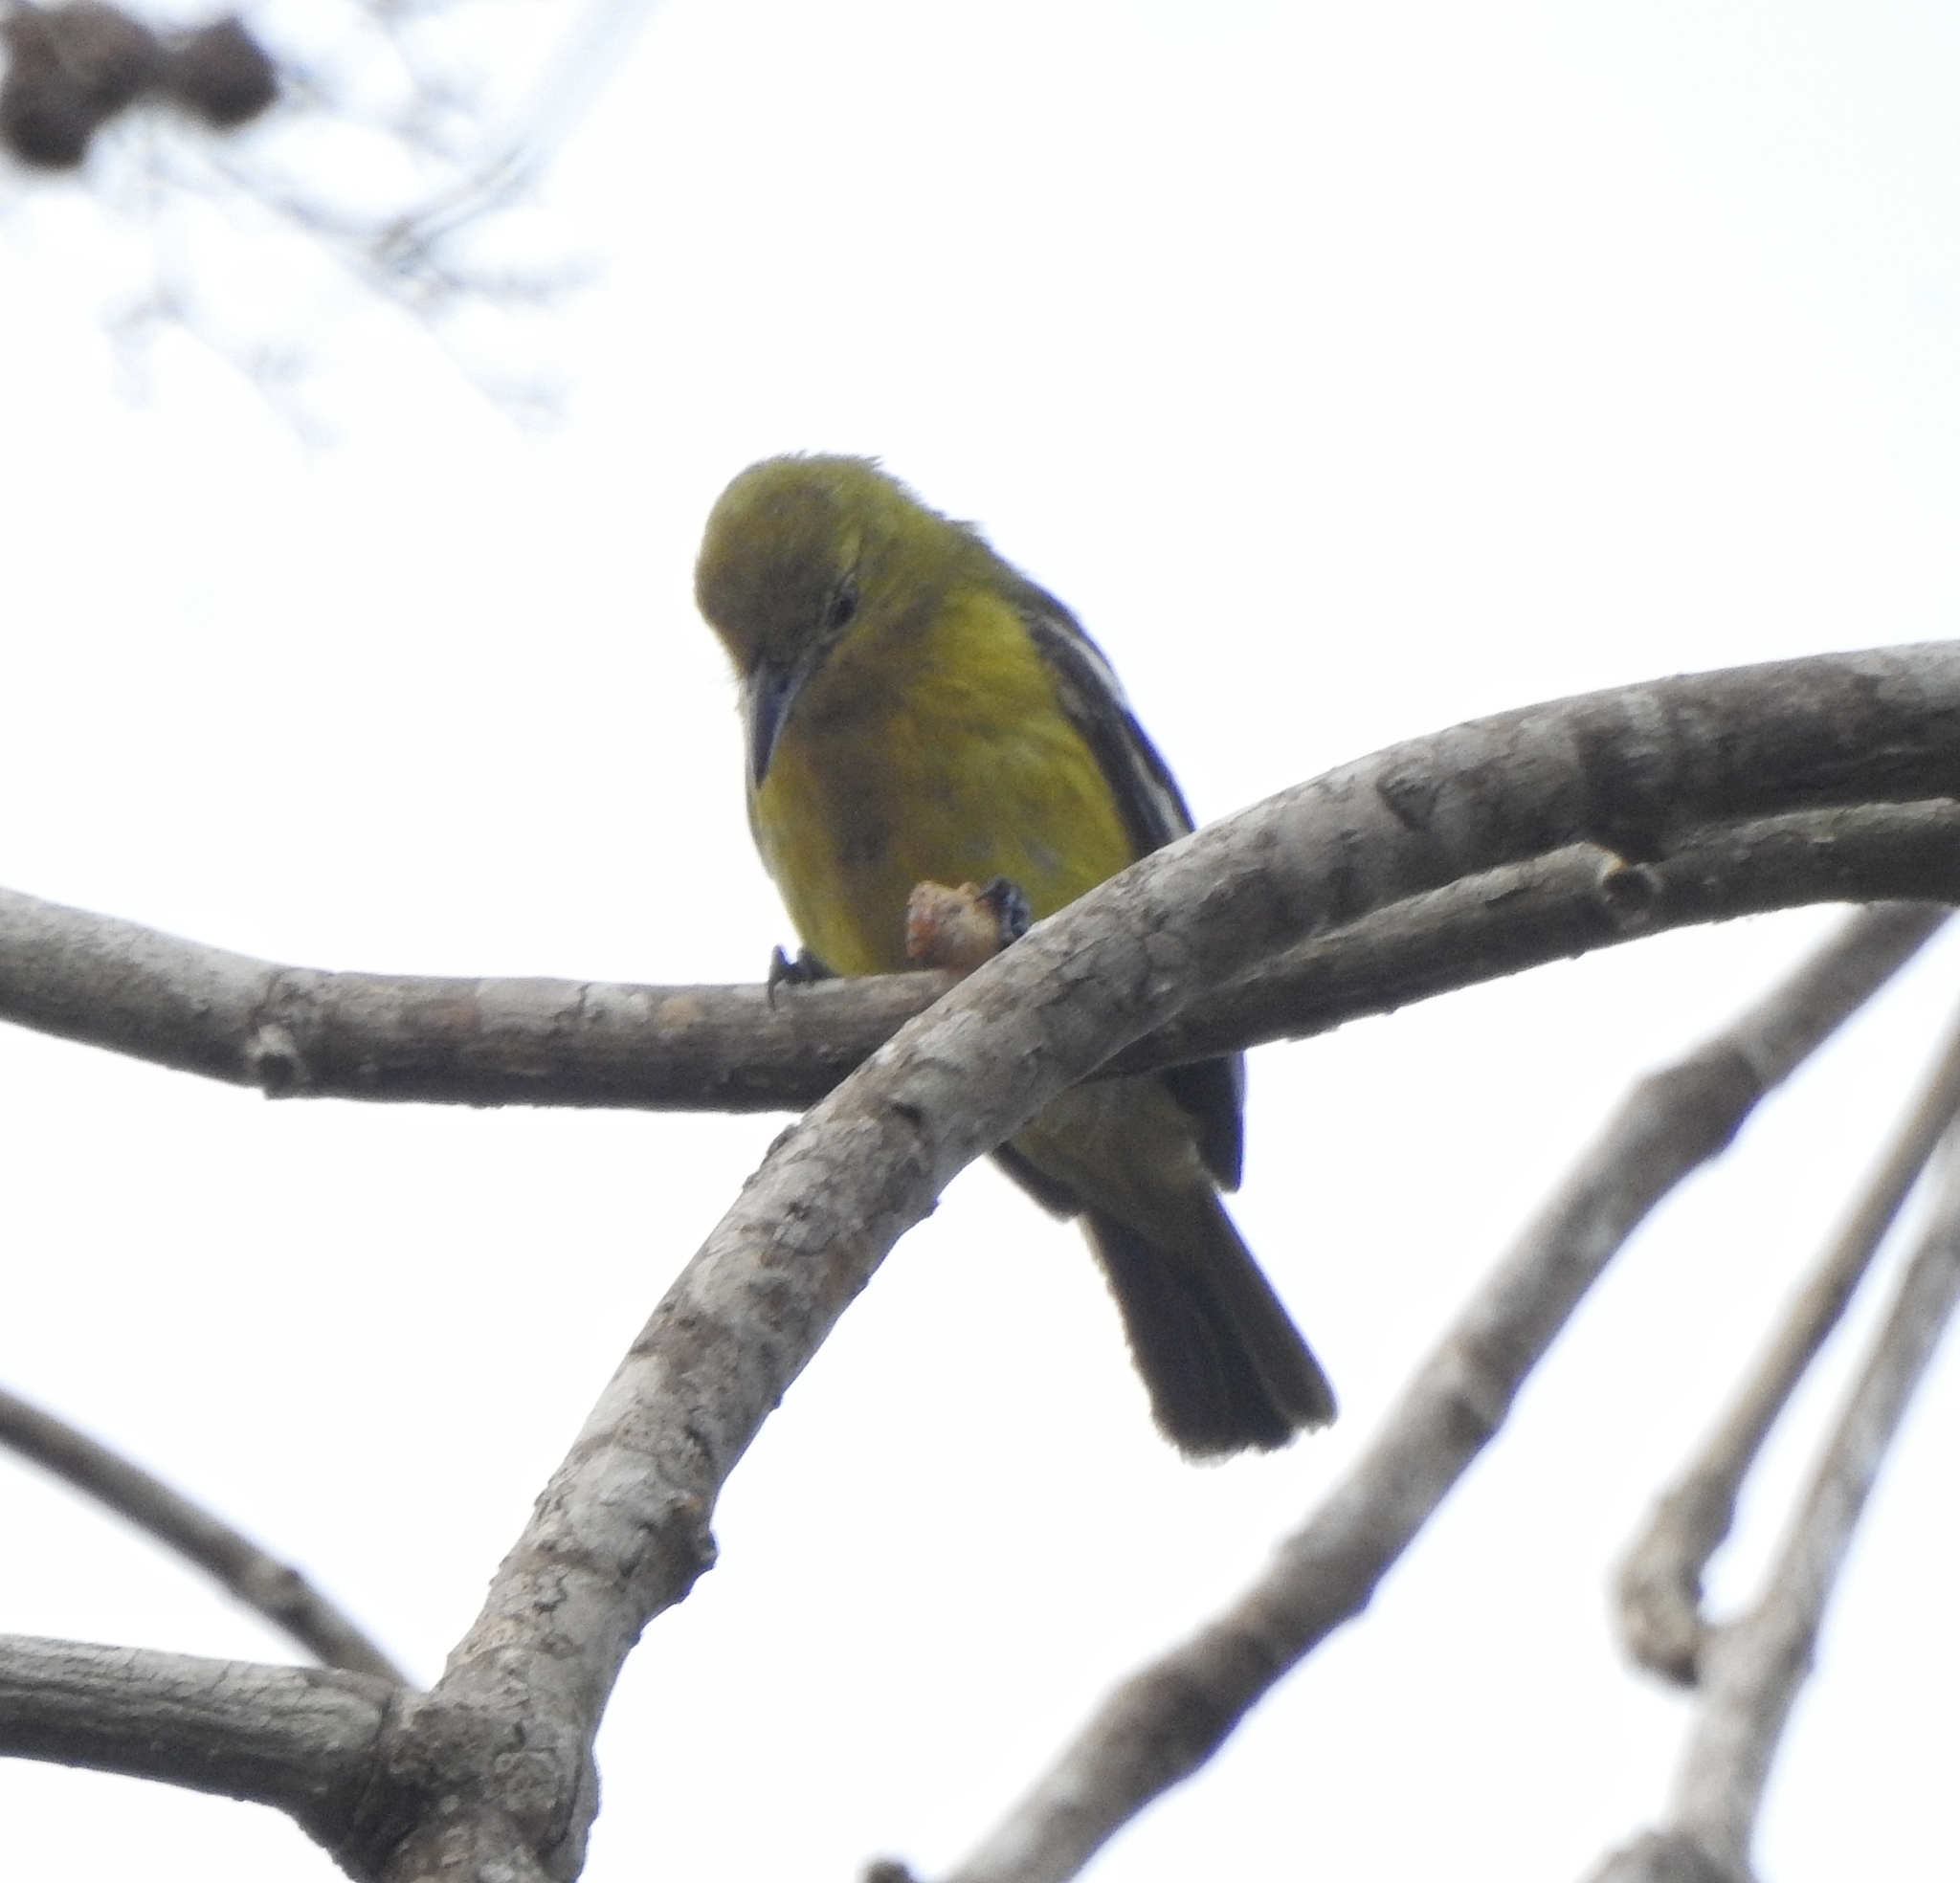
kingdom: Animalia
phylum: Chordata
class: Aves
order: Passeriformes
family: Aegithinidae
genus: Aegithina
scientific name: Aegithina tiphia
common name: Common iora
